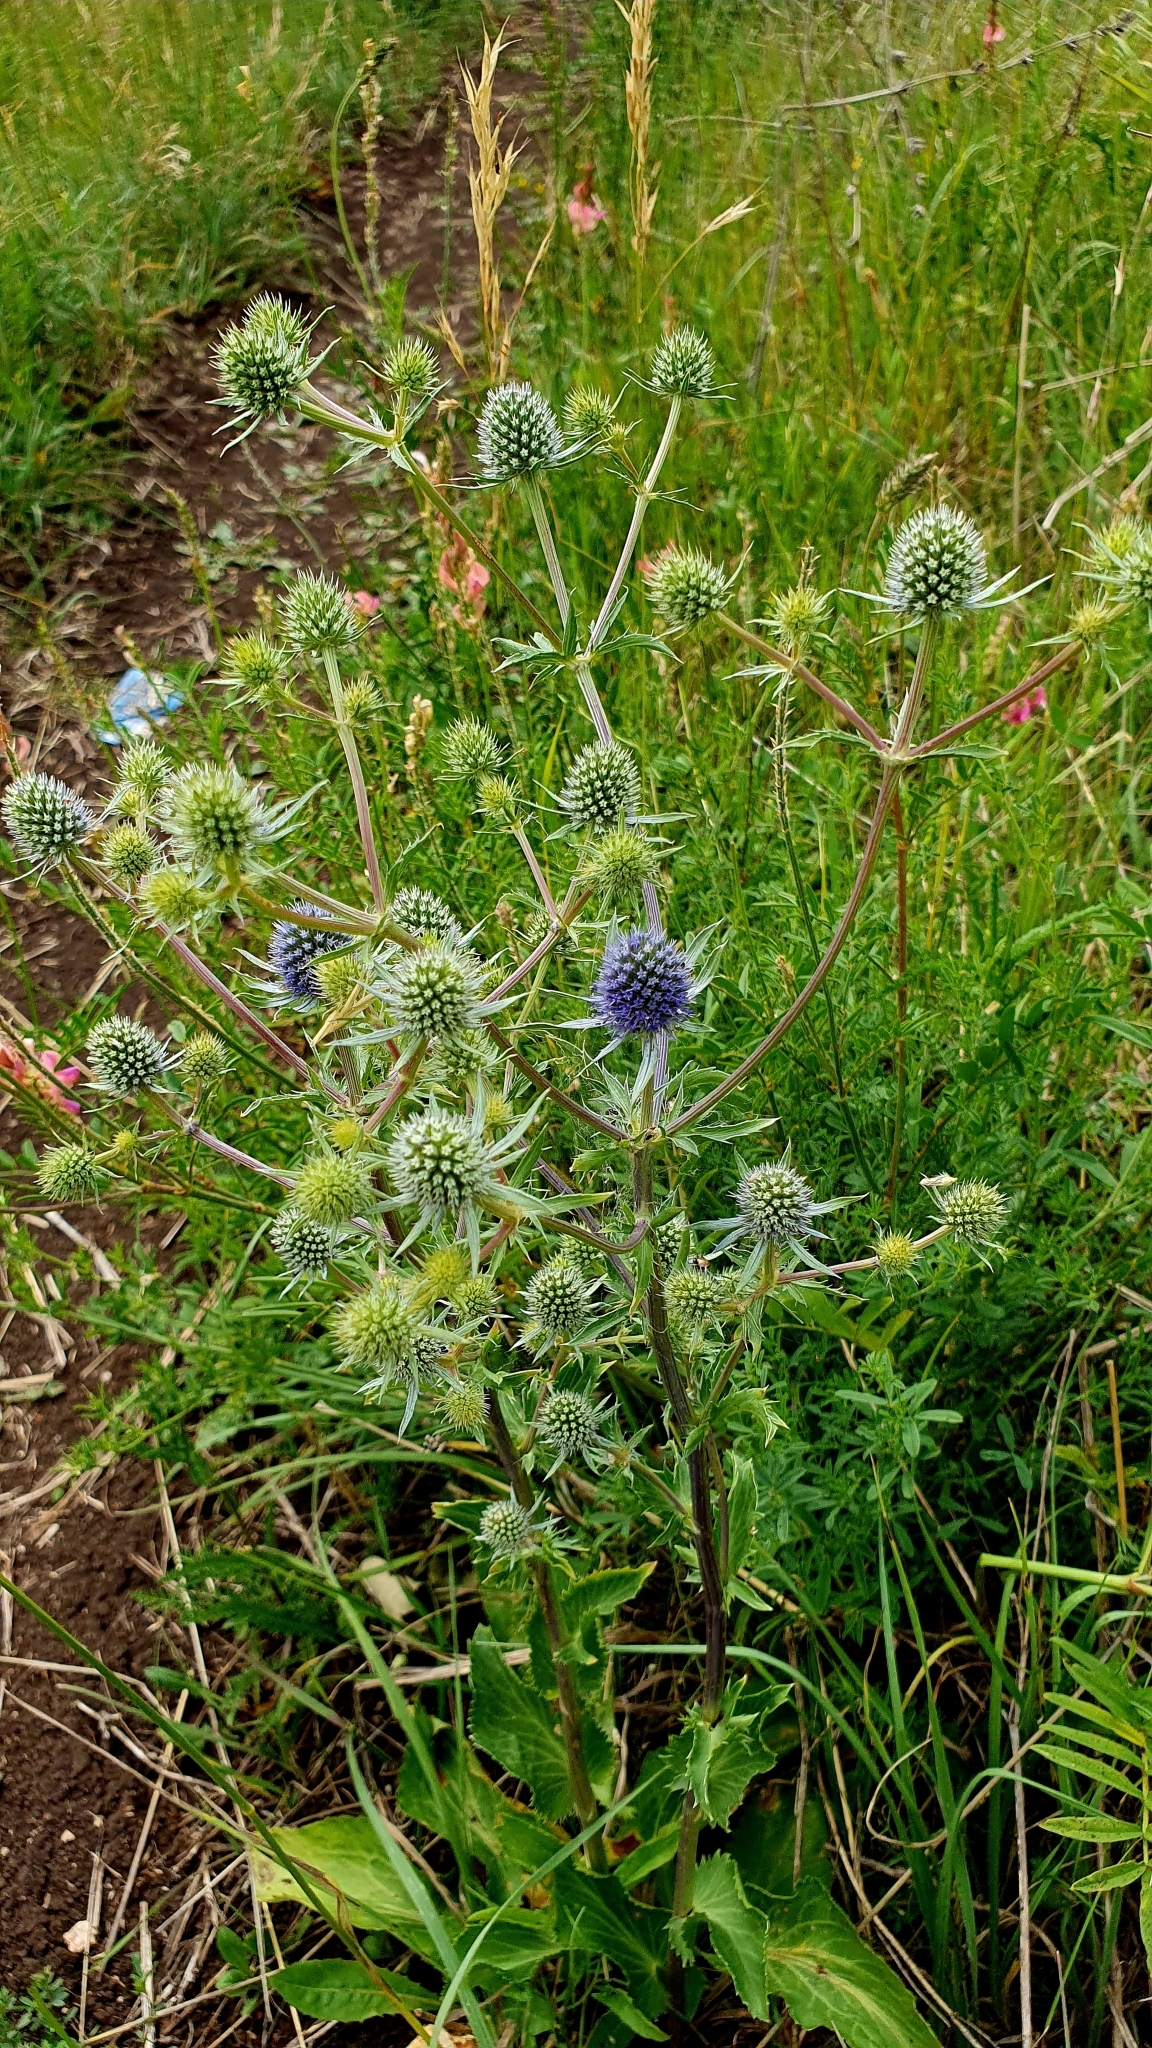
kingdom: Plantae
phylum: Tracheophyta
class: Magnoliopsida
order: Apiales
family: Apiaceae
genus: Eryngium
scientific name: Eryngium planum
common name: Blue eryngo
